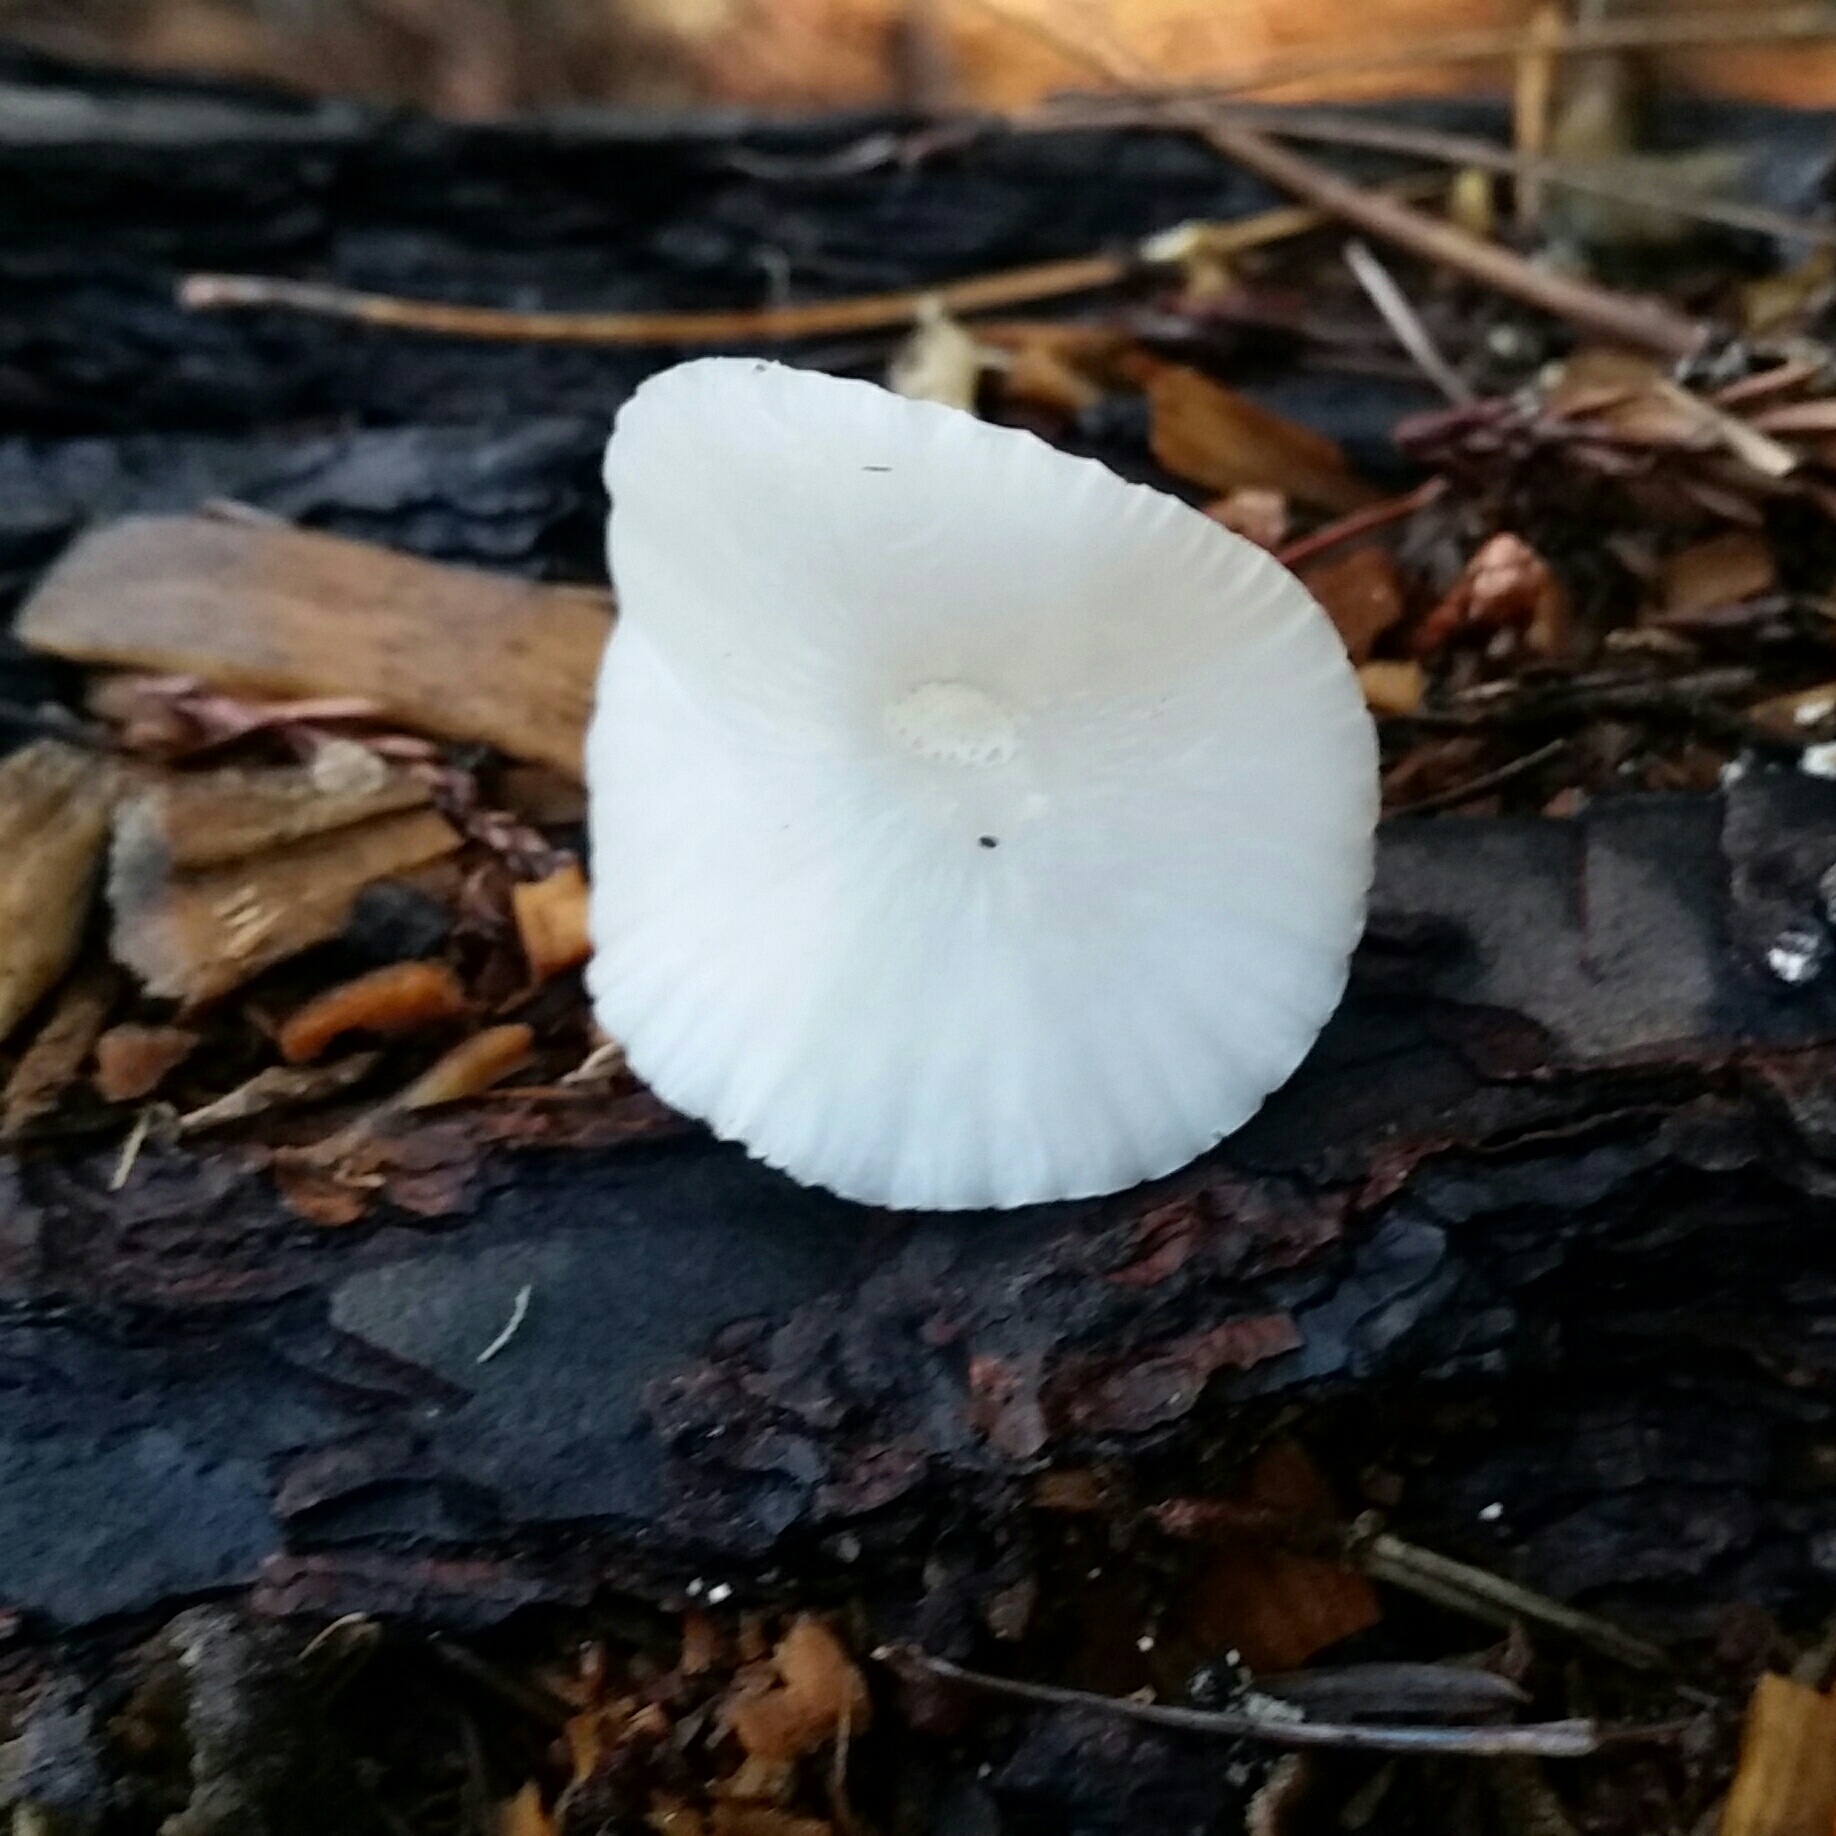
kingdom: Fungi
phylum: Basidiomycota
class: Agaricomycetes
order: Agaricales
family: Marasmiaceae
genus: Marasmius
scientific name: Marasmius calhouniae
